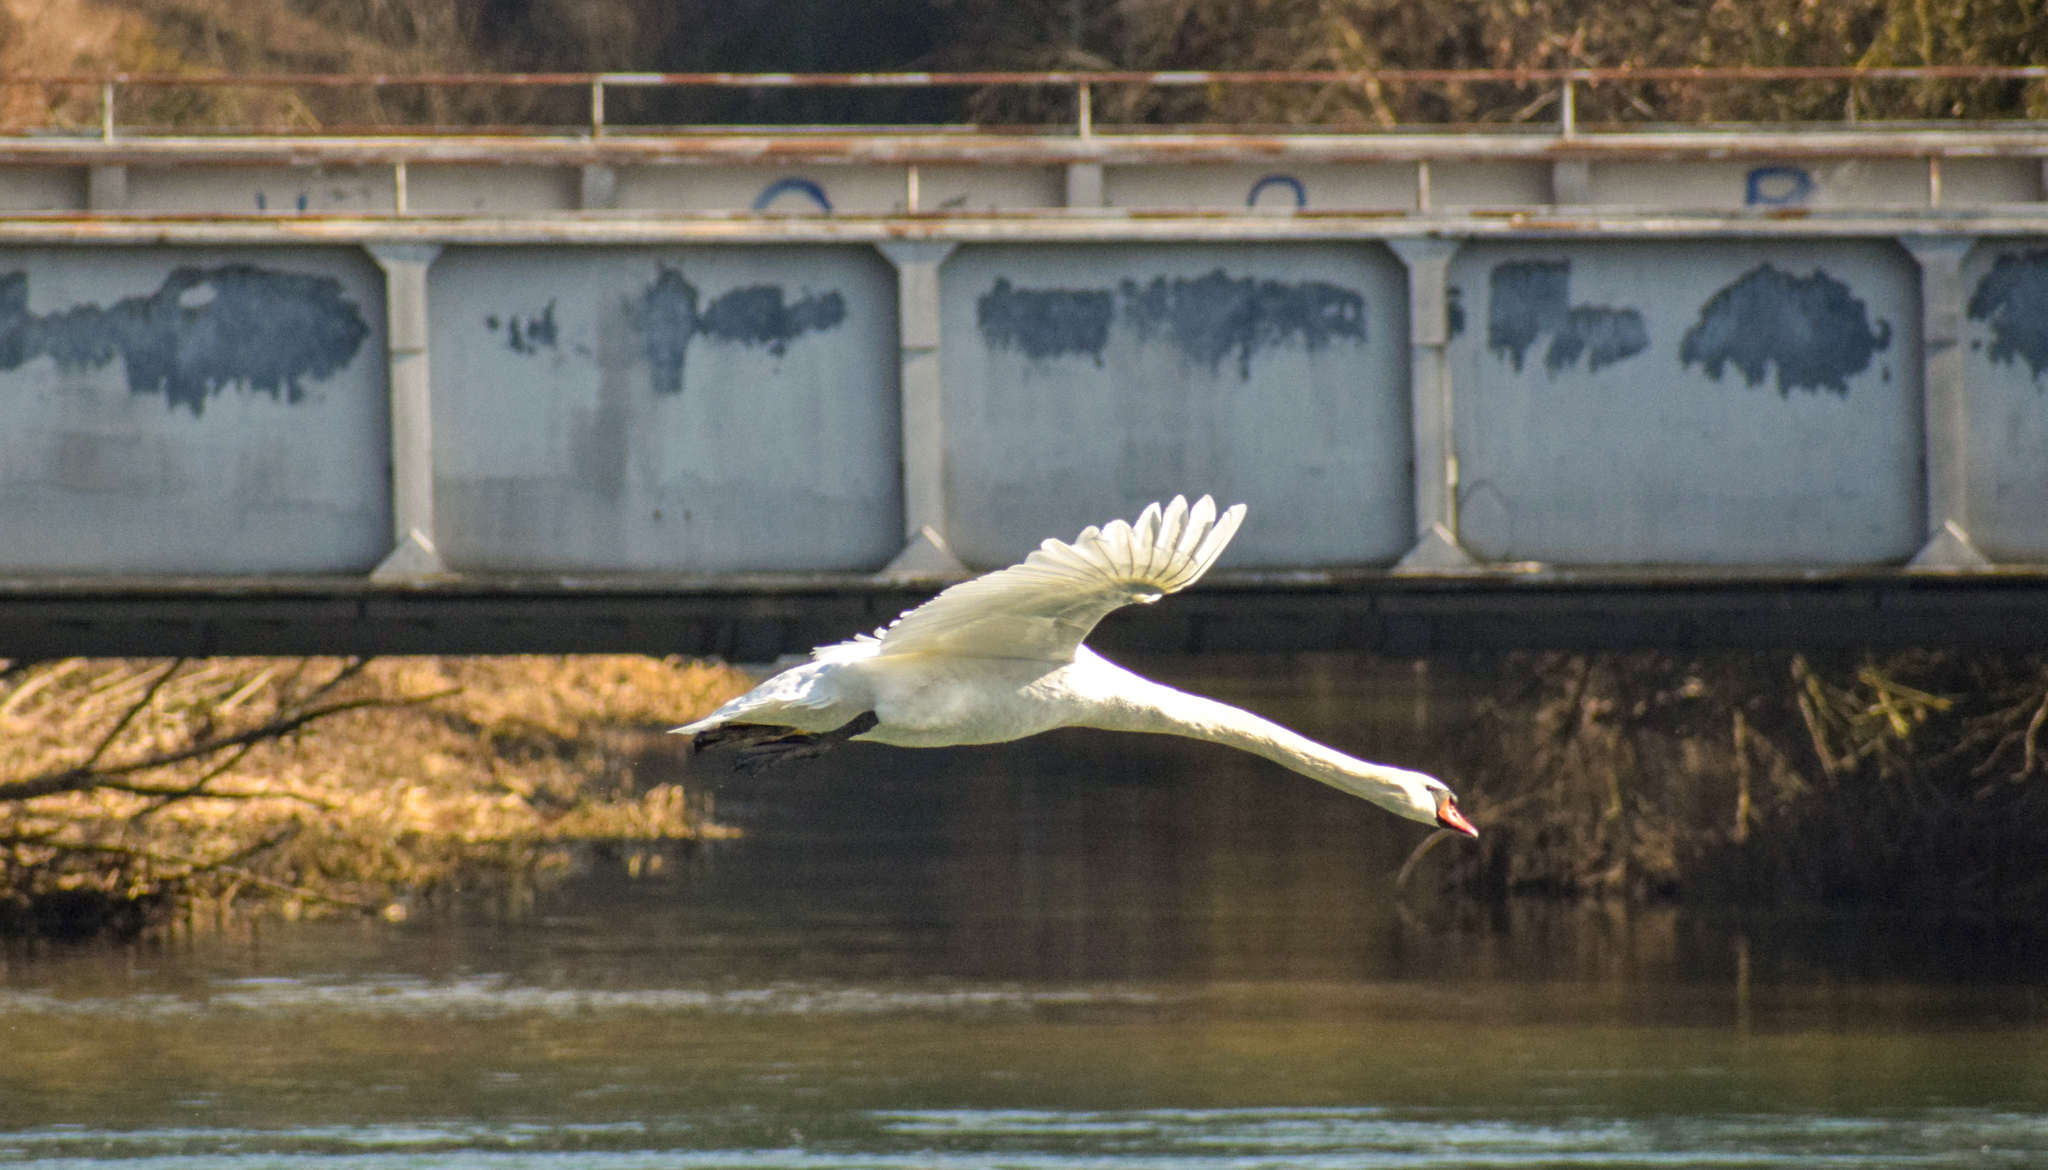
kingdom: Animalia
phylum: Chordata
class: Aves
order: Anseriformes
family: Anatidae
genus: Cygnus
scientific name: Cygnus olor
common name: Mute swan
